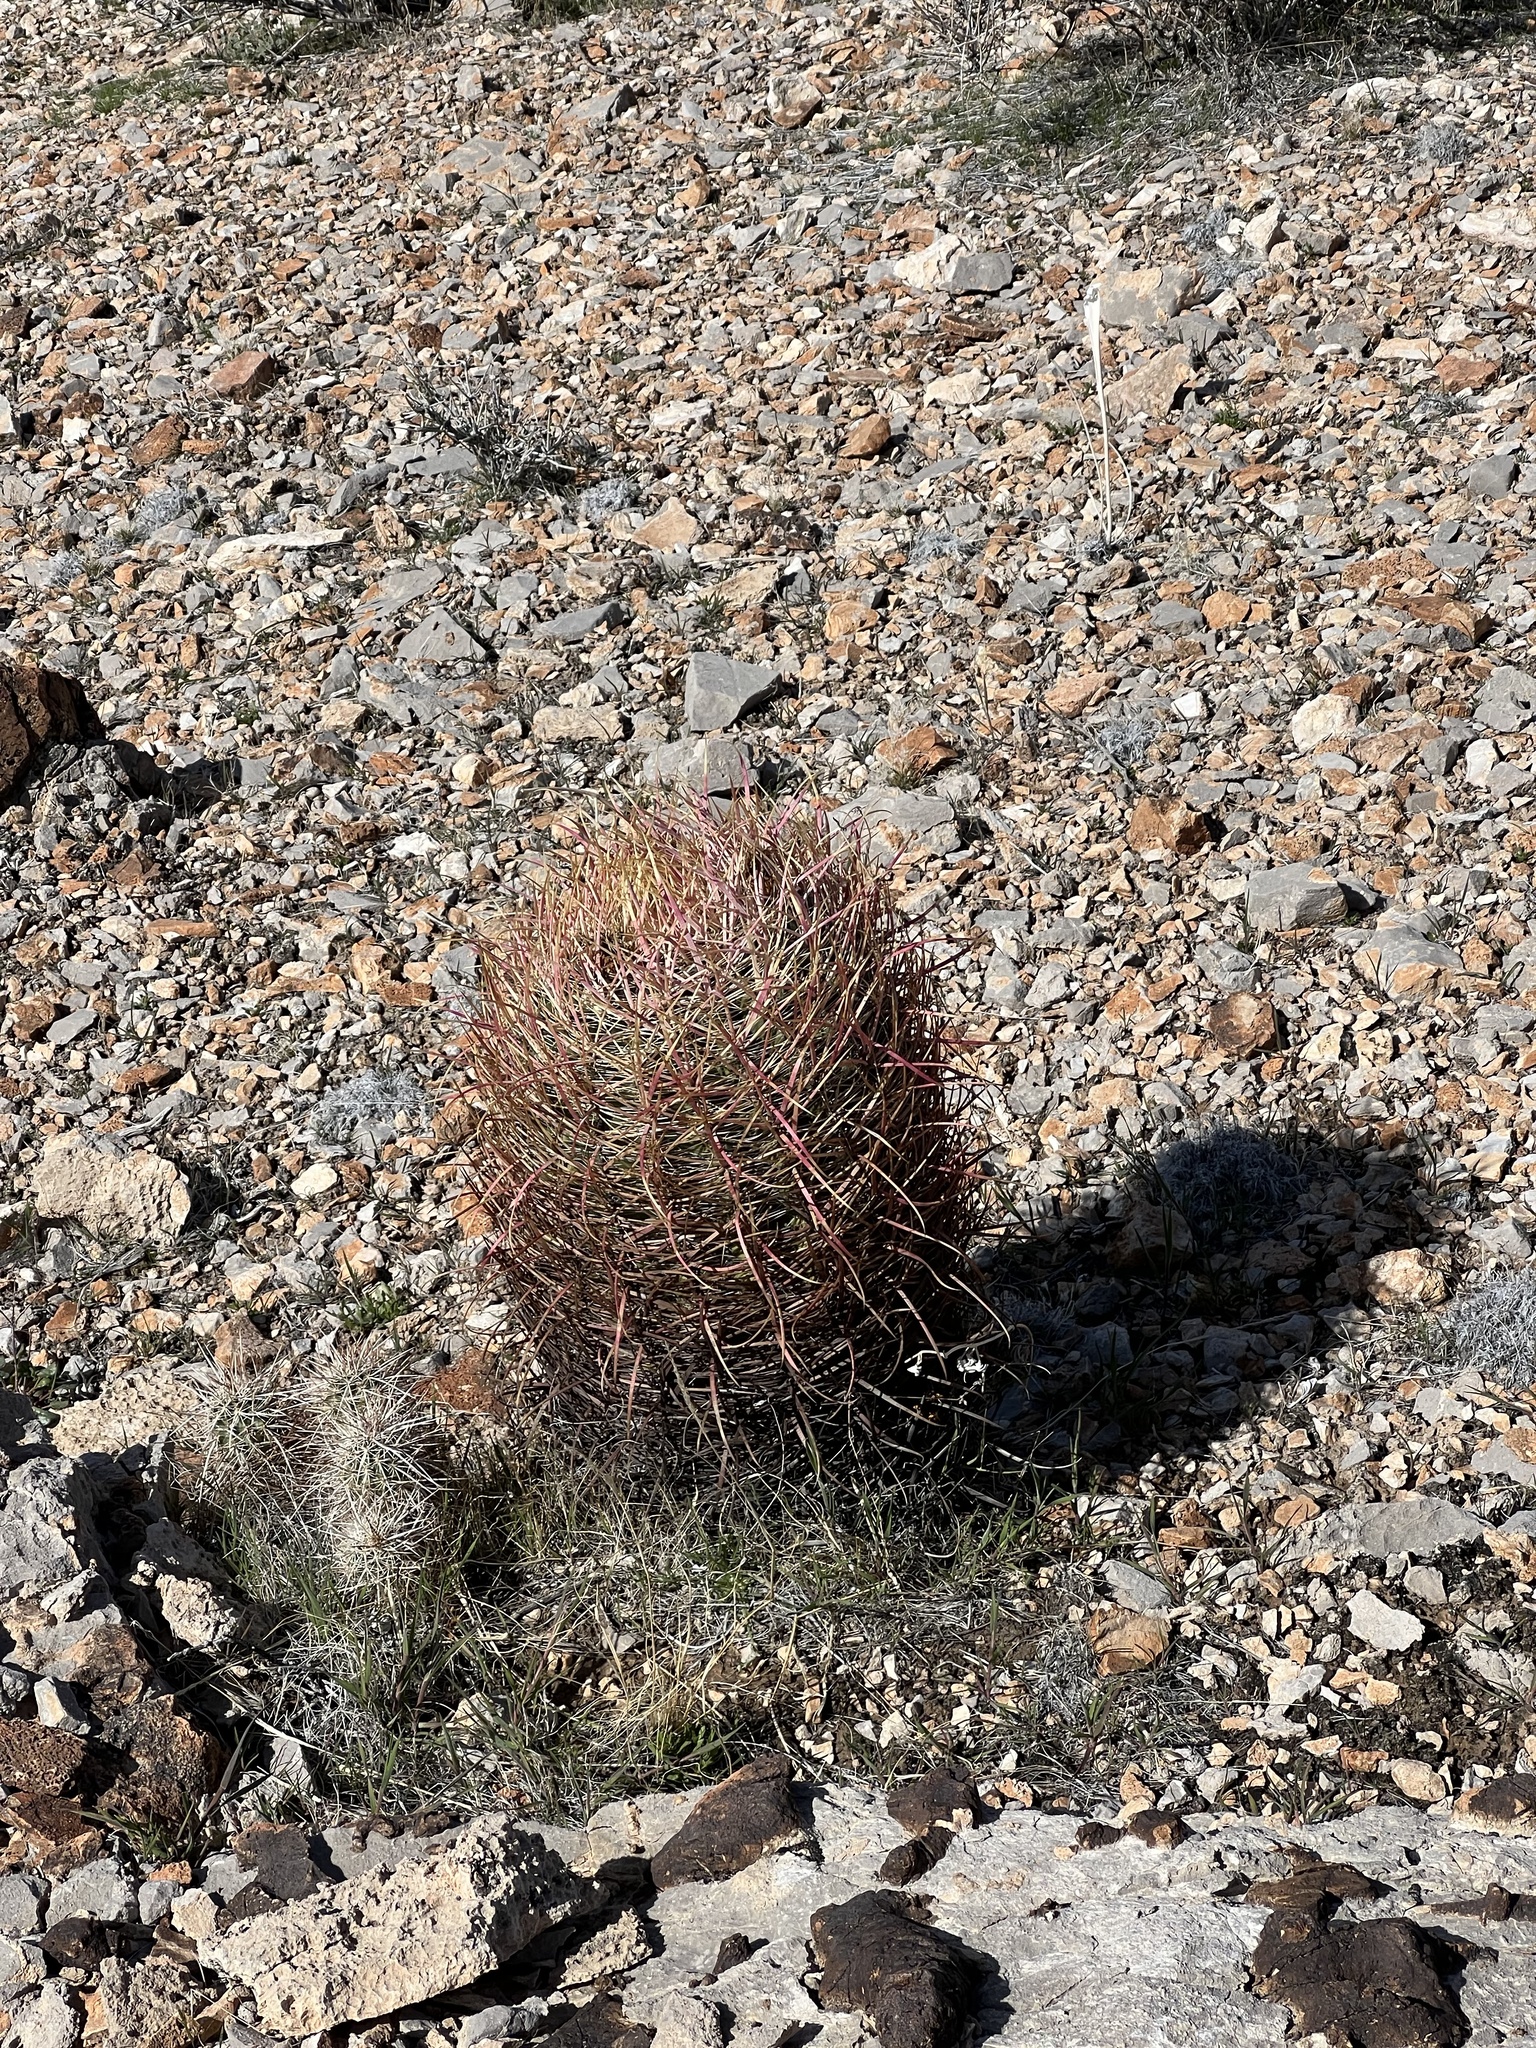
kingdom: Plantae
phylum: Tracheophyta
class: Magnoliopsida
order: Caryophyllales
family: Cactaceae
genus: Ferocactus
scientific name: Ferocactus cylindraceus
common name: California barrel cactus
